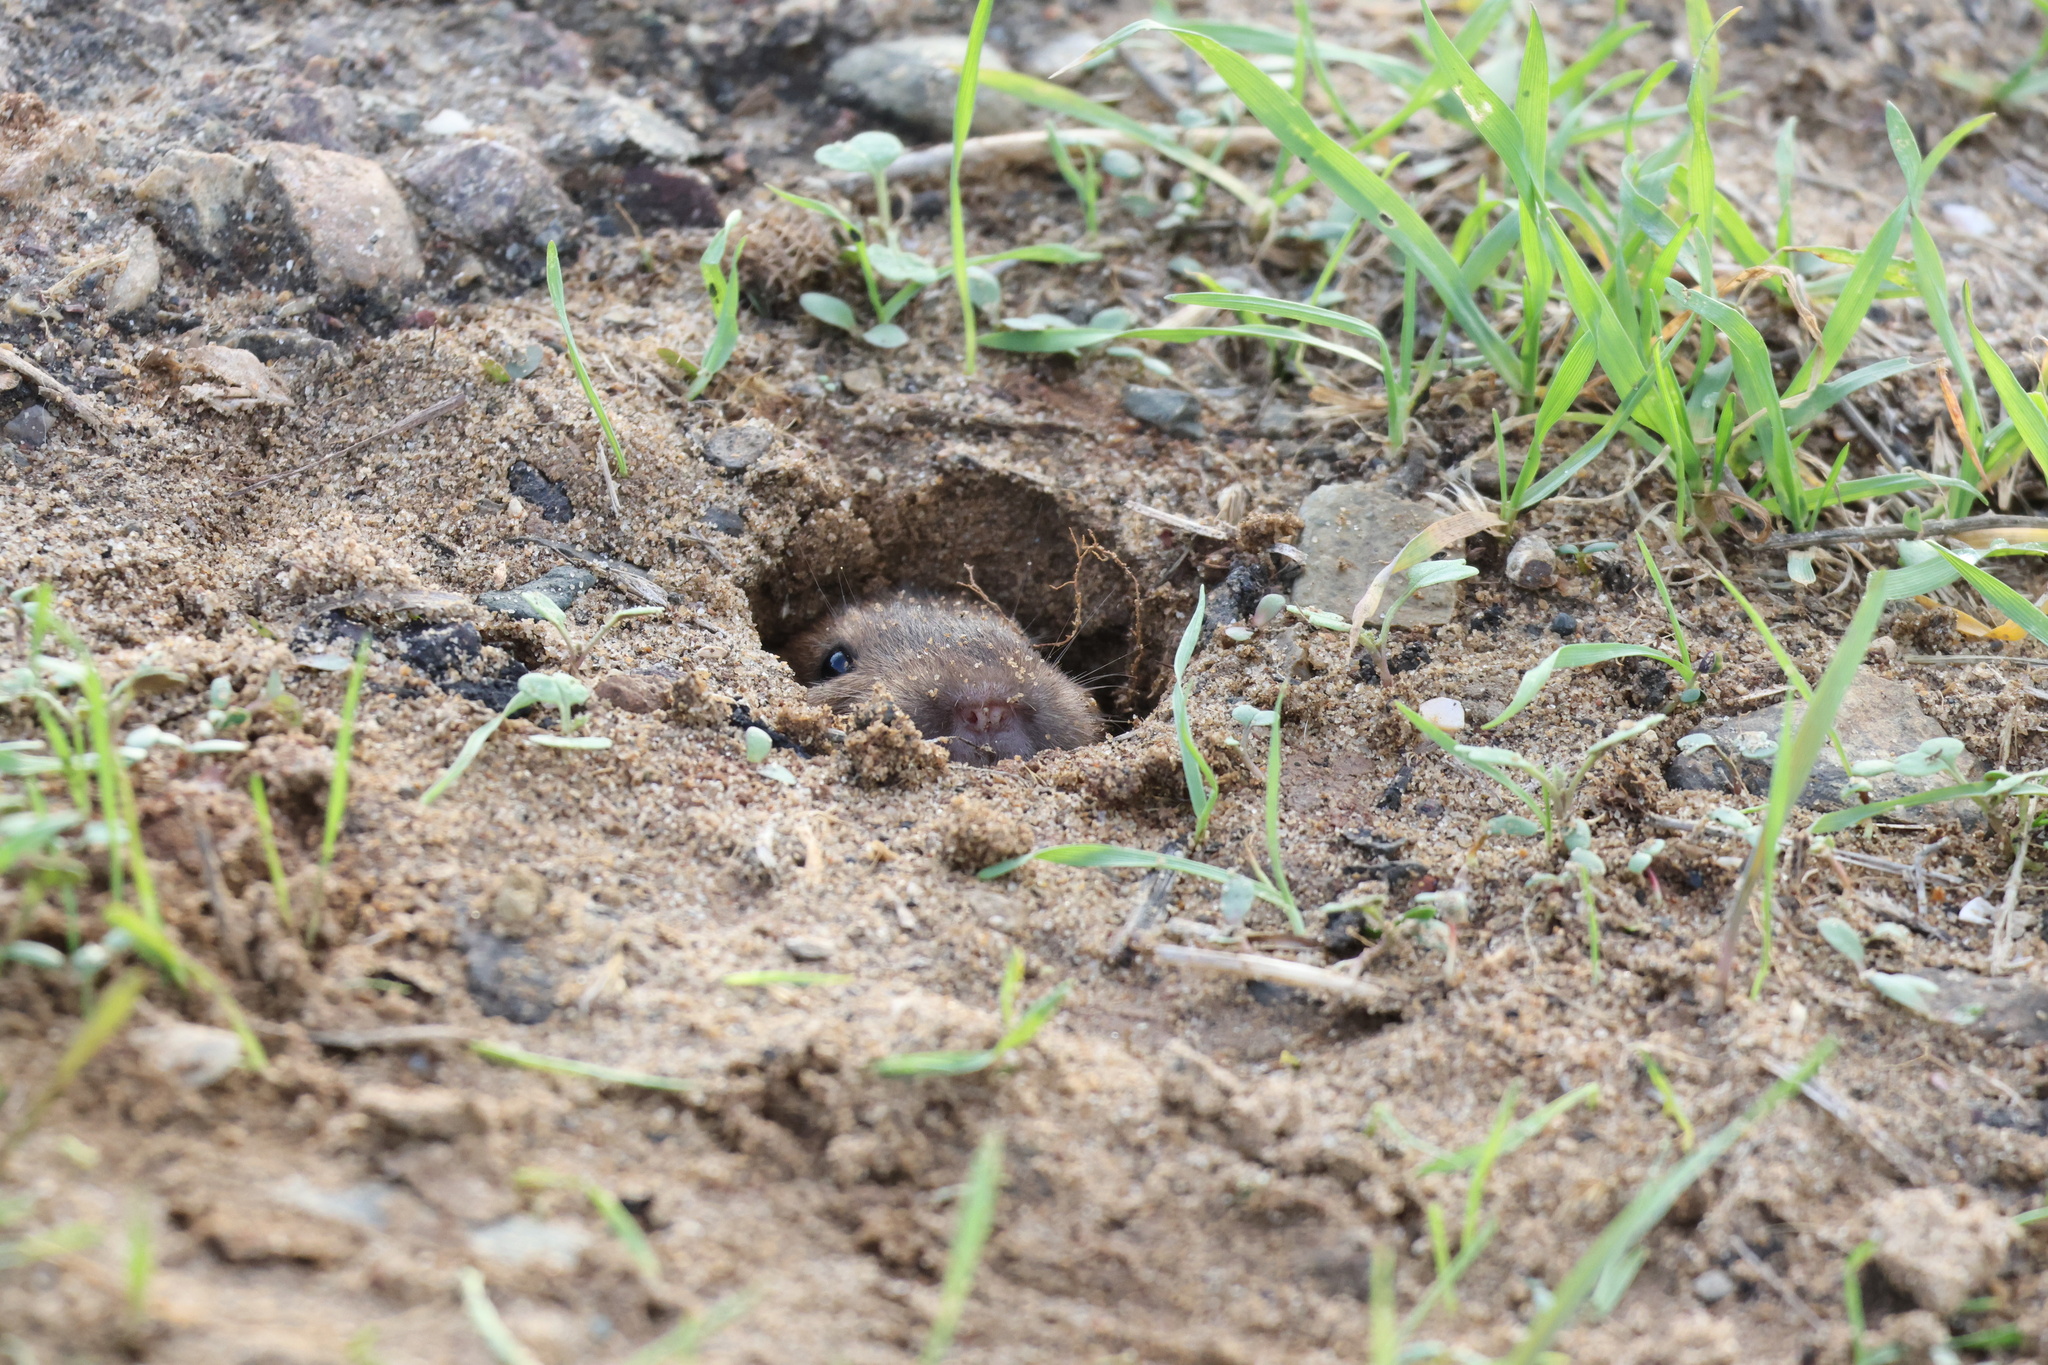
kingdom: Animalia
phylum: Chordata
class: Mammalia
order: Rodentia
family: Geomyidae
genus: Thomomys
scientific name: Thomomys bottae
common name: Botta's pocket gopher
